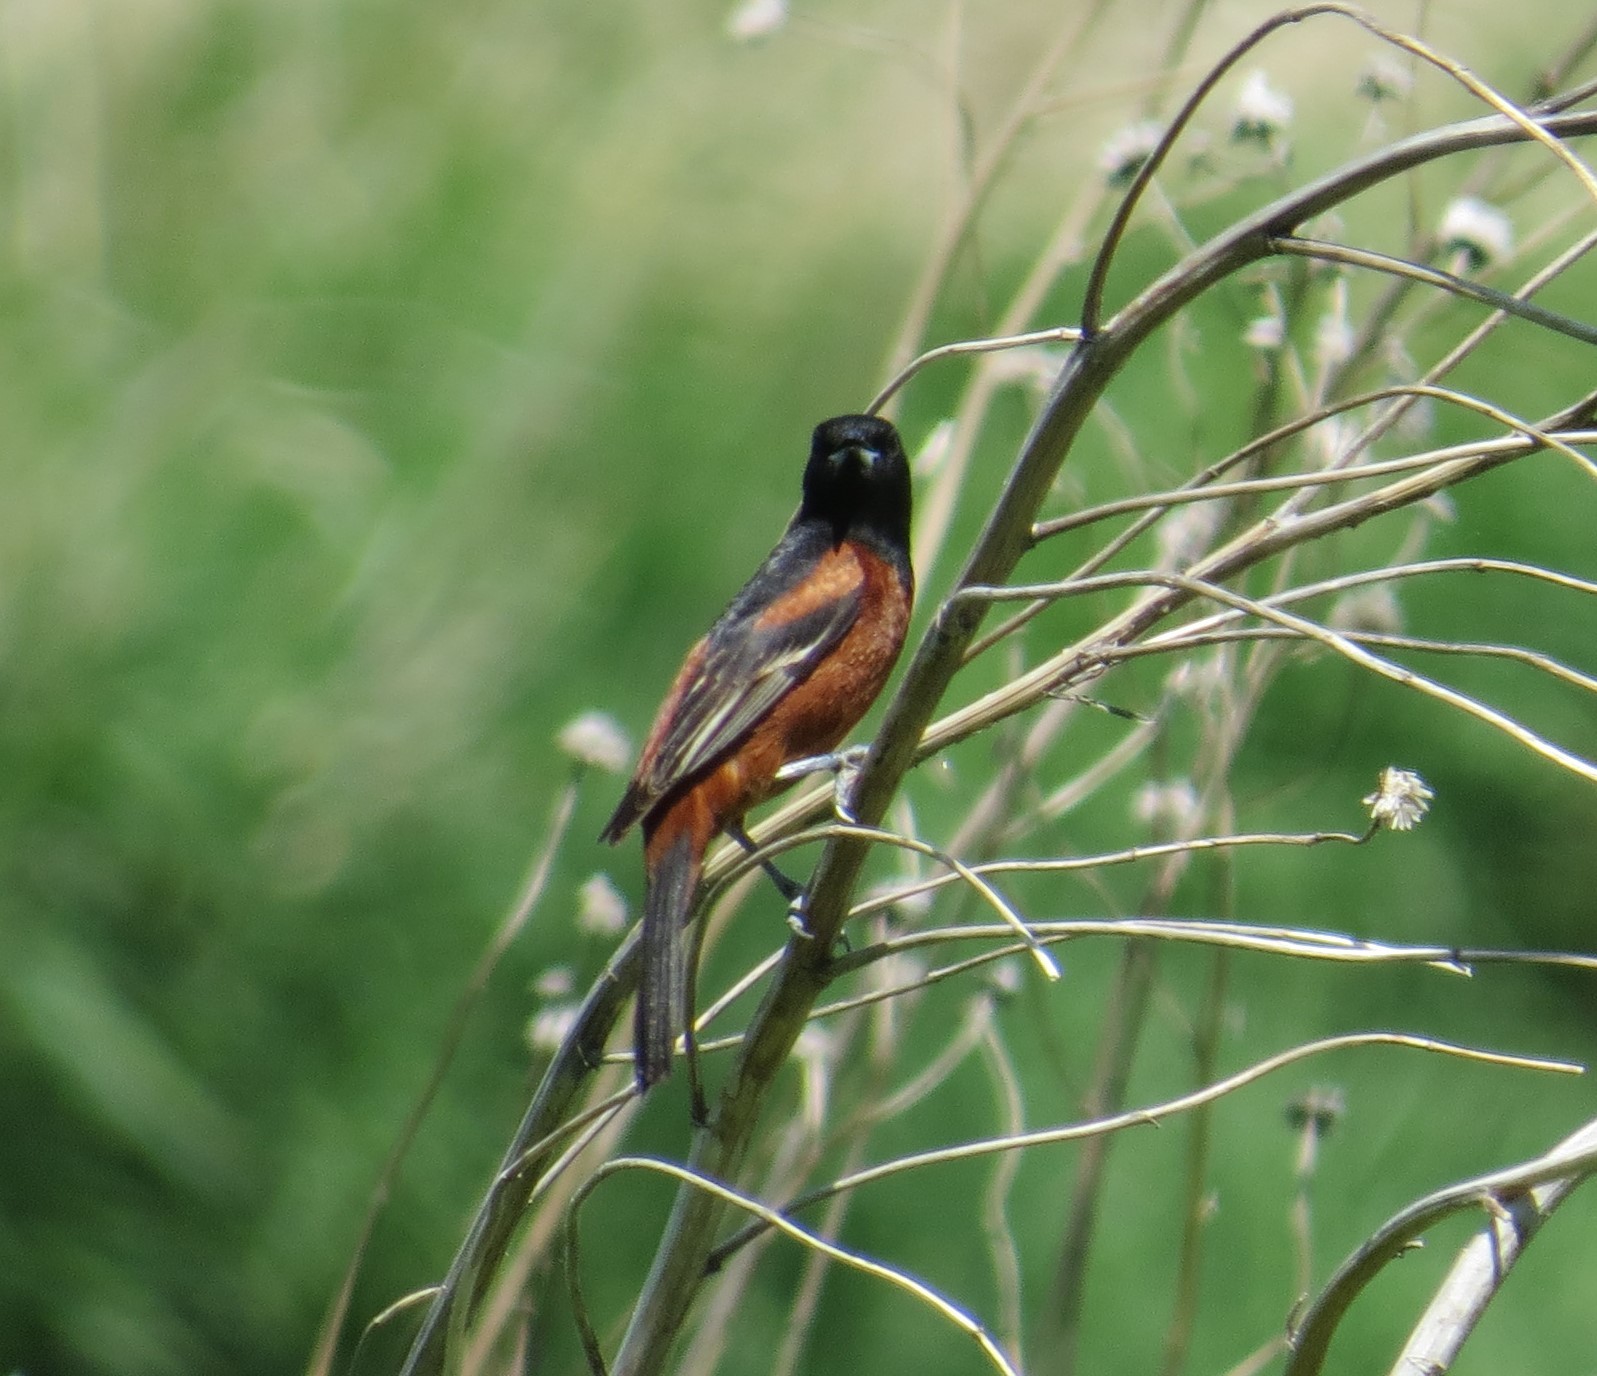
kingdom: Animalia
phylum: Chordata
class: Aves
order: Passeriformes
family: Icteridae
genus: Icterus
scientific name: Icterus spurius
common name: Orchard oriole
